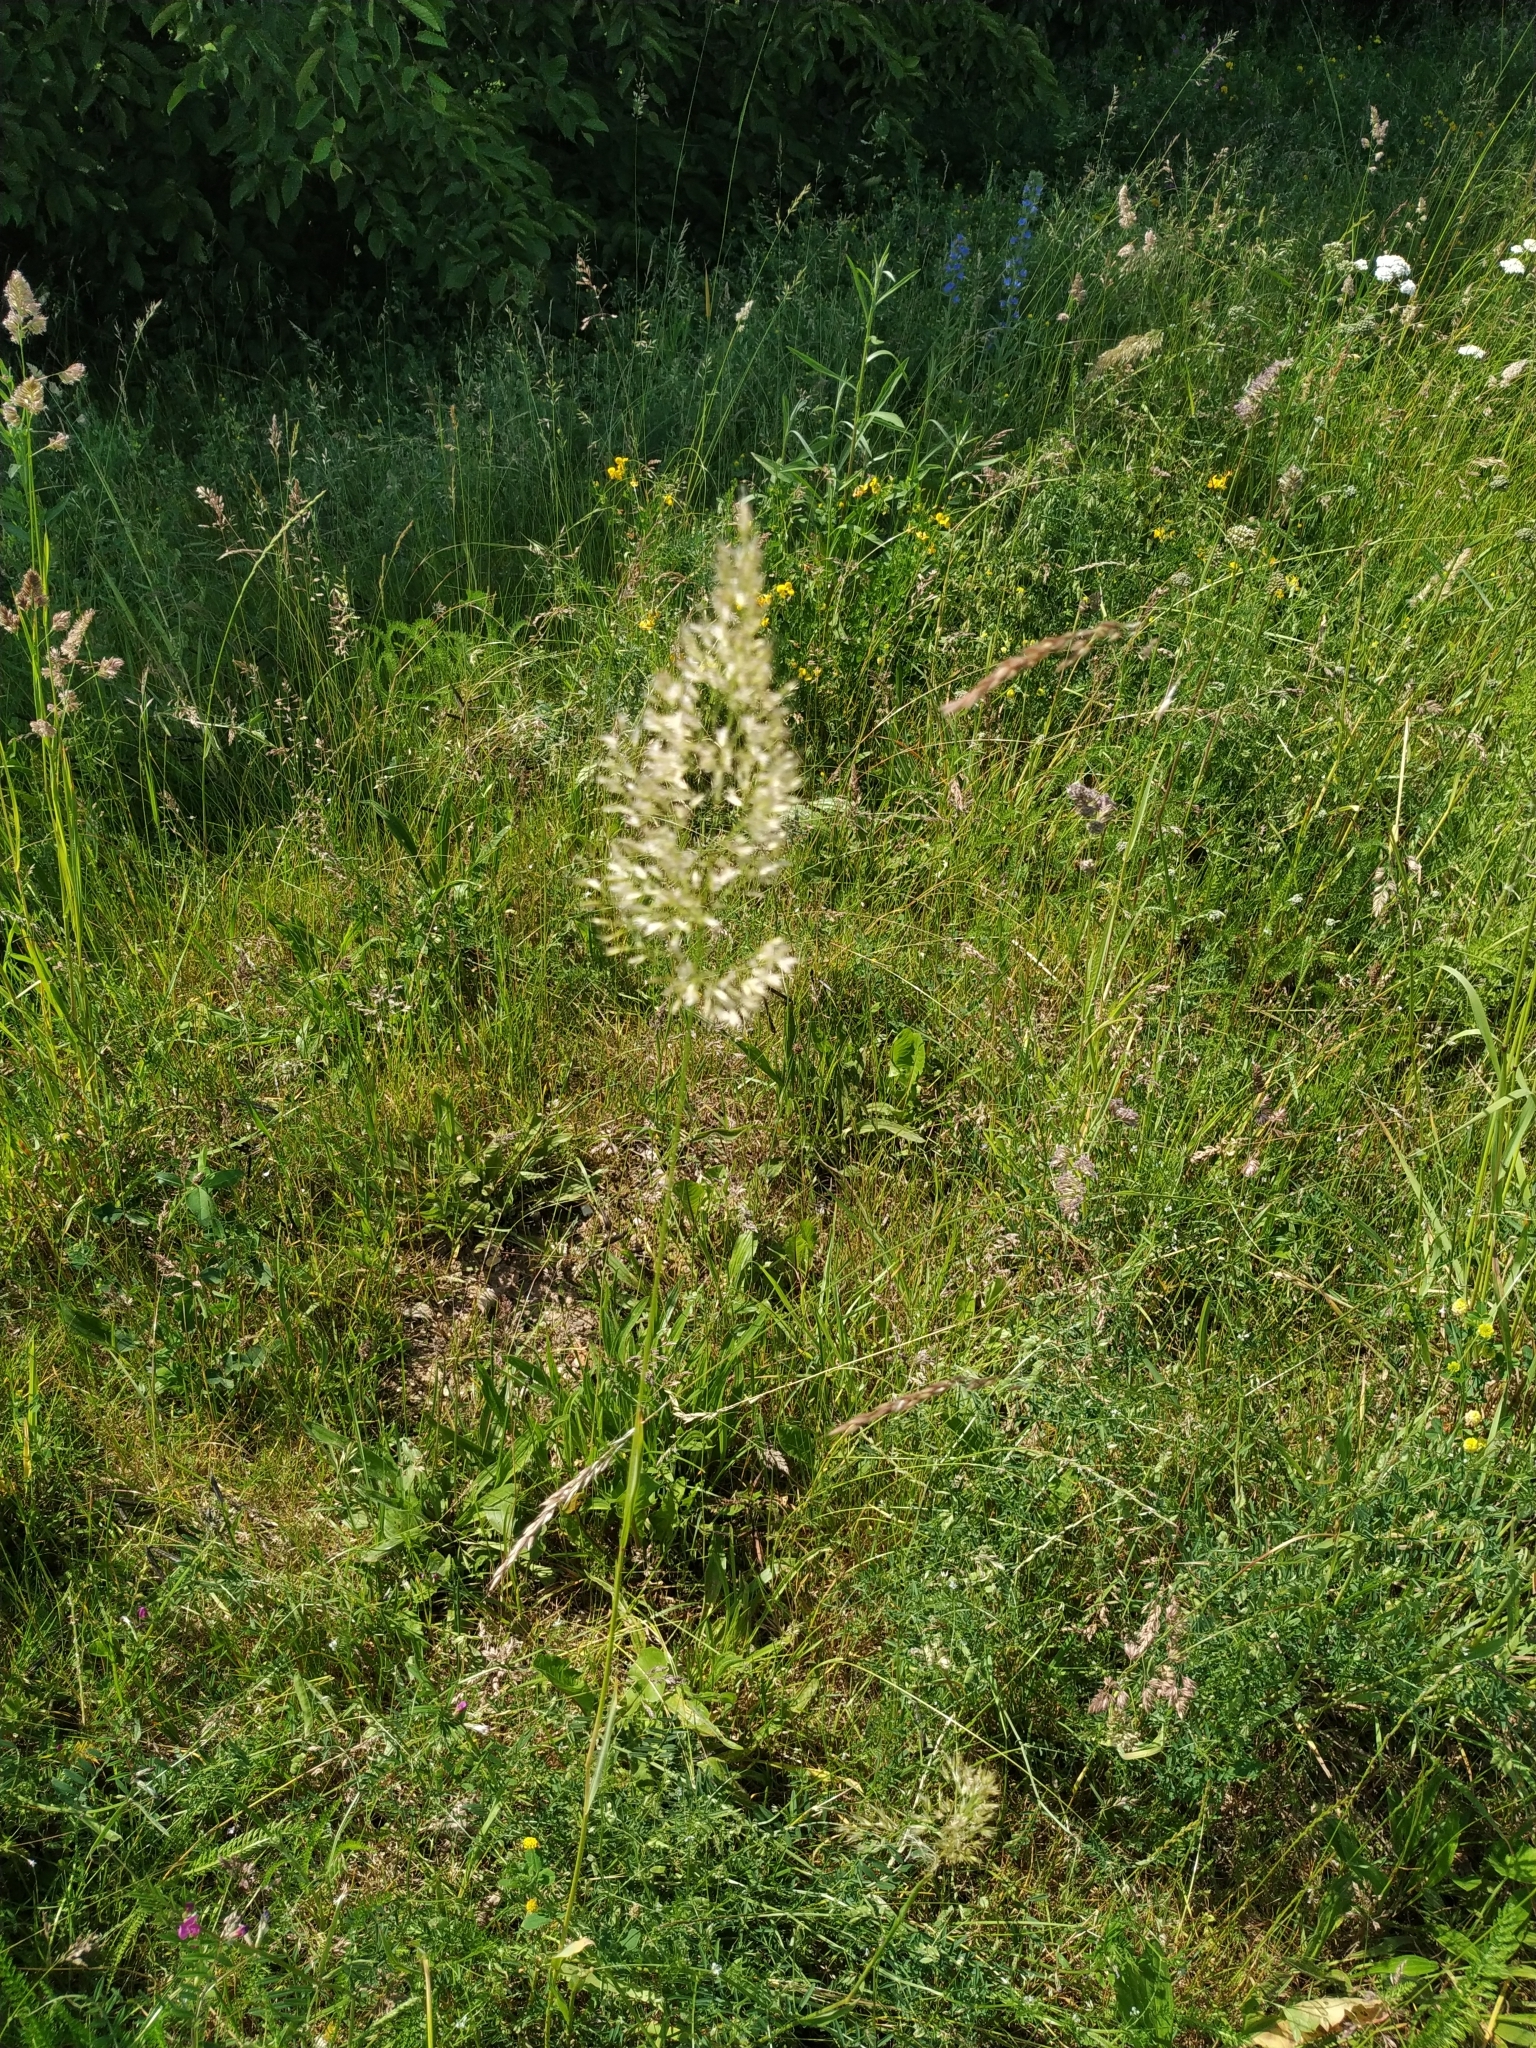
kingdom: Plantae
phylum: Tracheophyta
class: Liliopsida
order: Poales
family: Poaceae
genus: Trisetum
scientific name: Trisetum flavescens
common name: Yellow oat-grass
